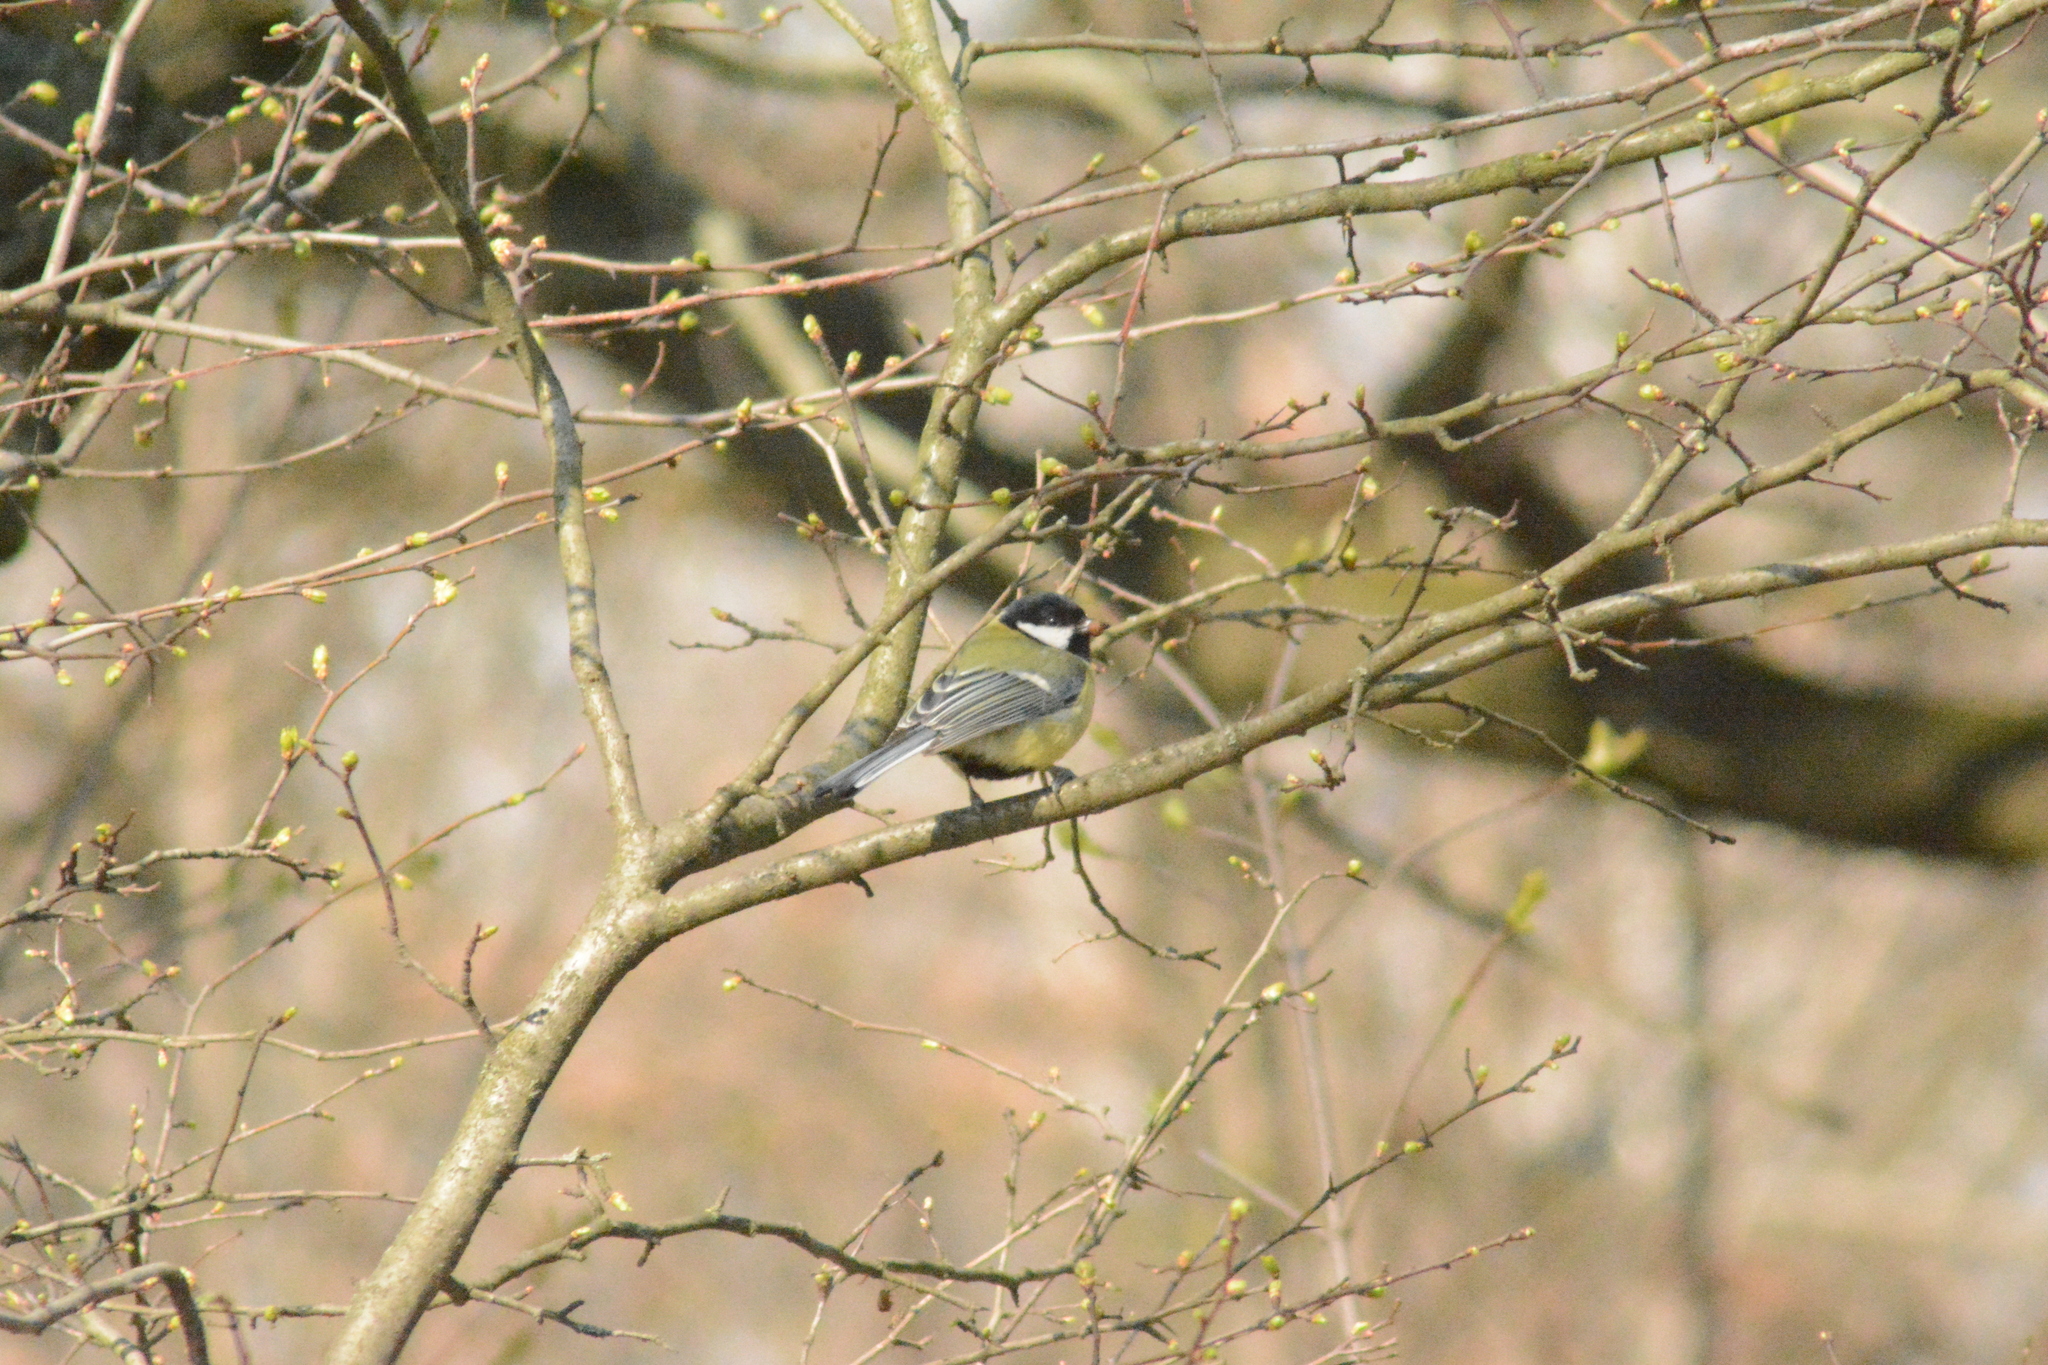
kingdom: Animalia
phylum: Chordata
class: Aves
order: Passeriformes
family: Paridae
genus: Parus
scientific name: Parus major
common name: Great tit
